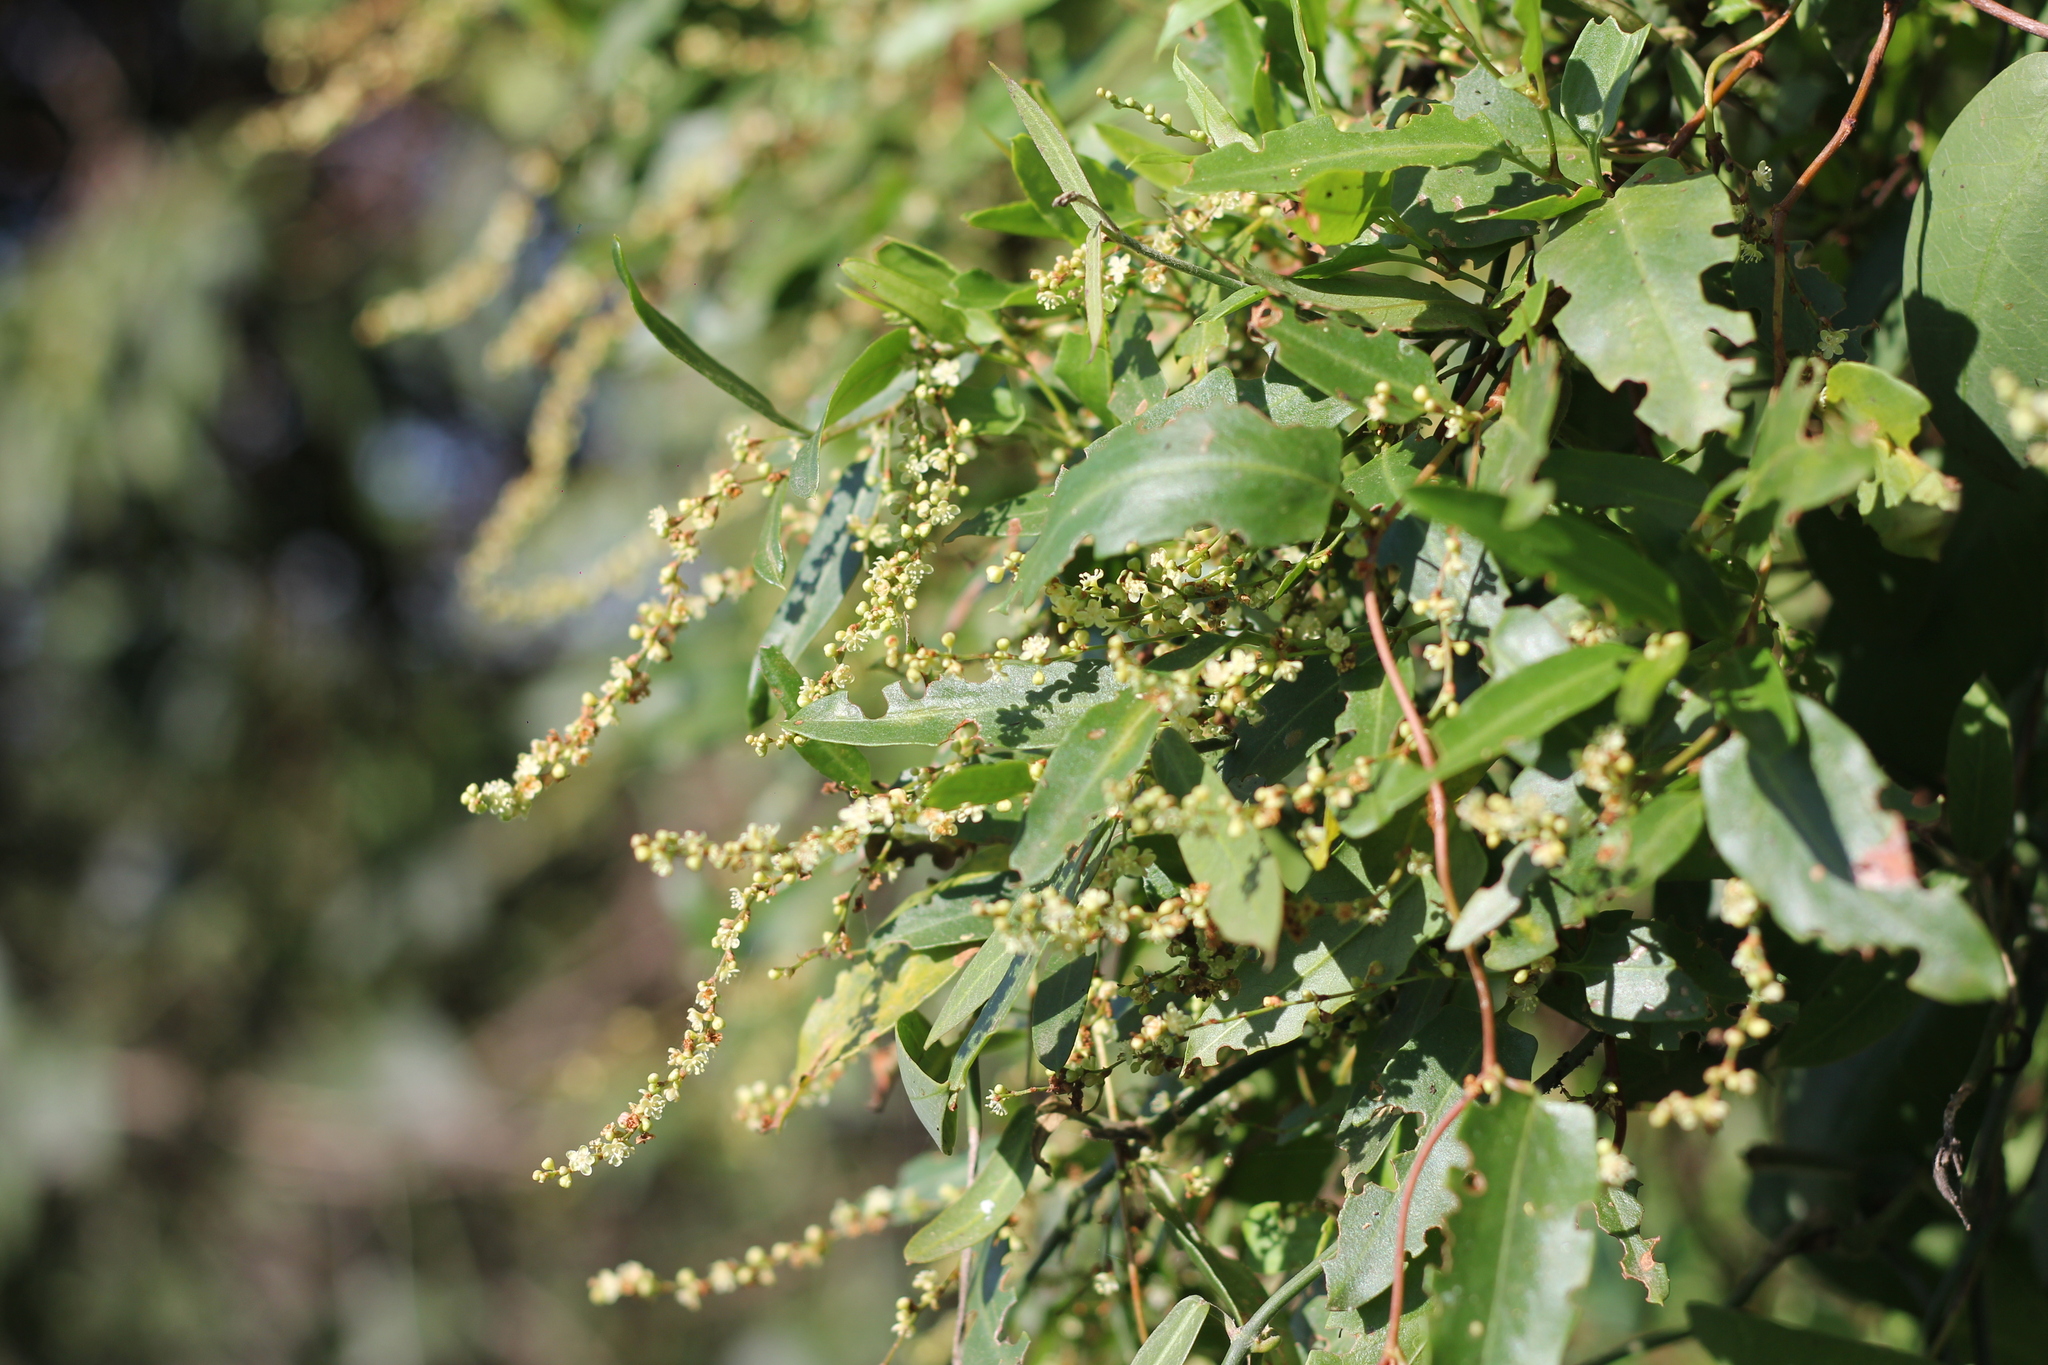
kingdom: Plantae
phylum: Tracheophyta
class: Magnoliopsida
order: Caryophyllales
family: Polygonaceae
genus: Muehlenbeckia
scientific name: Muehlenbeckia sagittifolia
